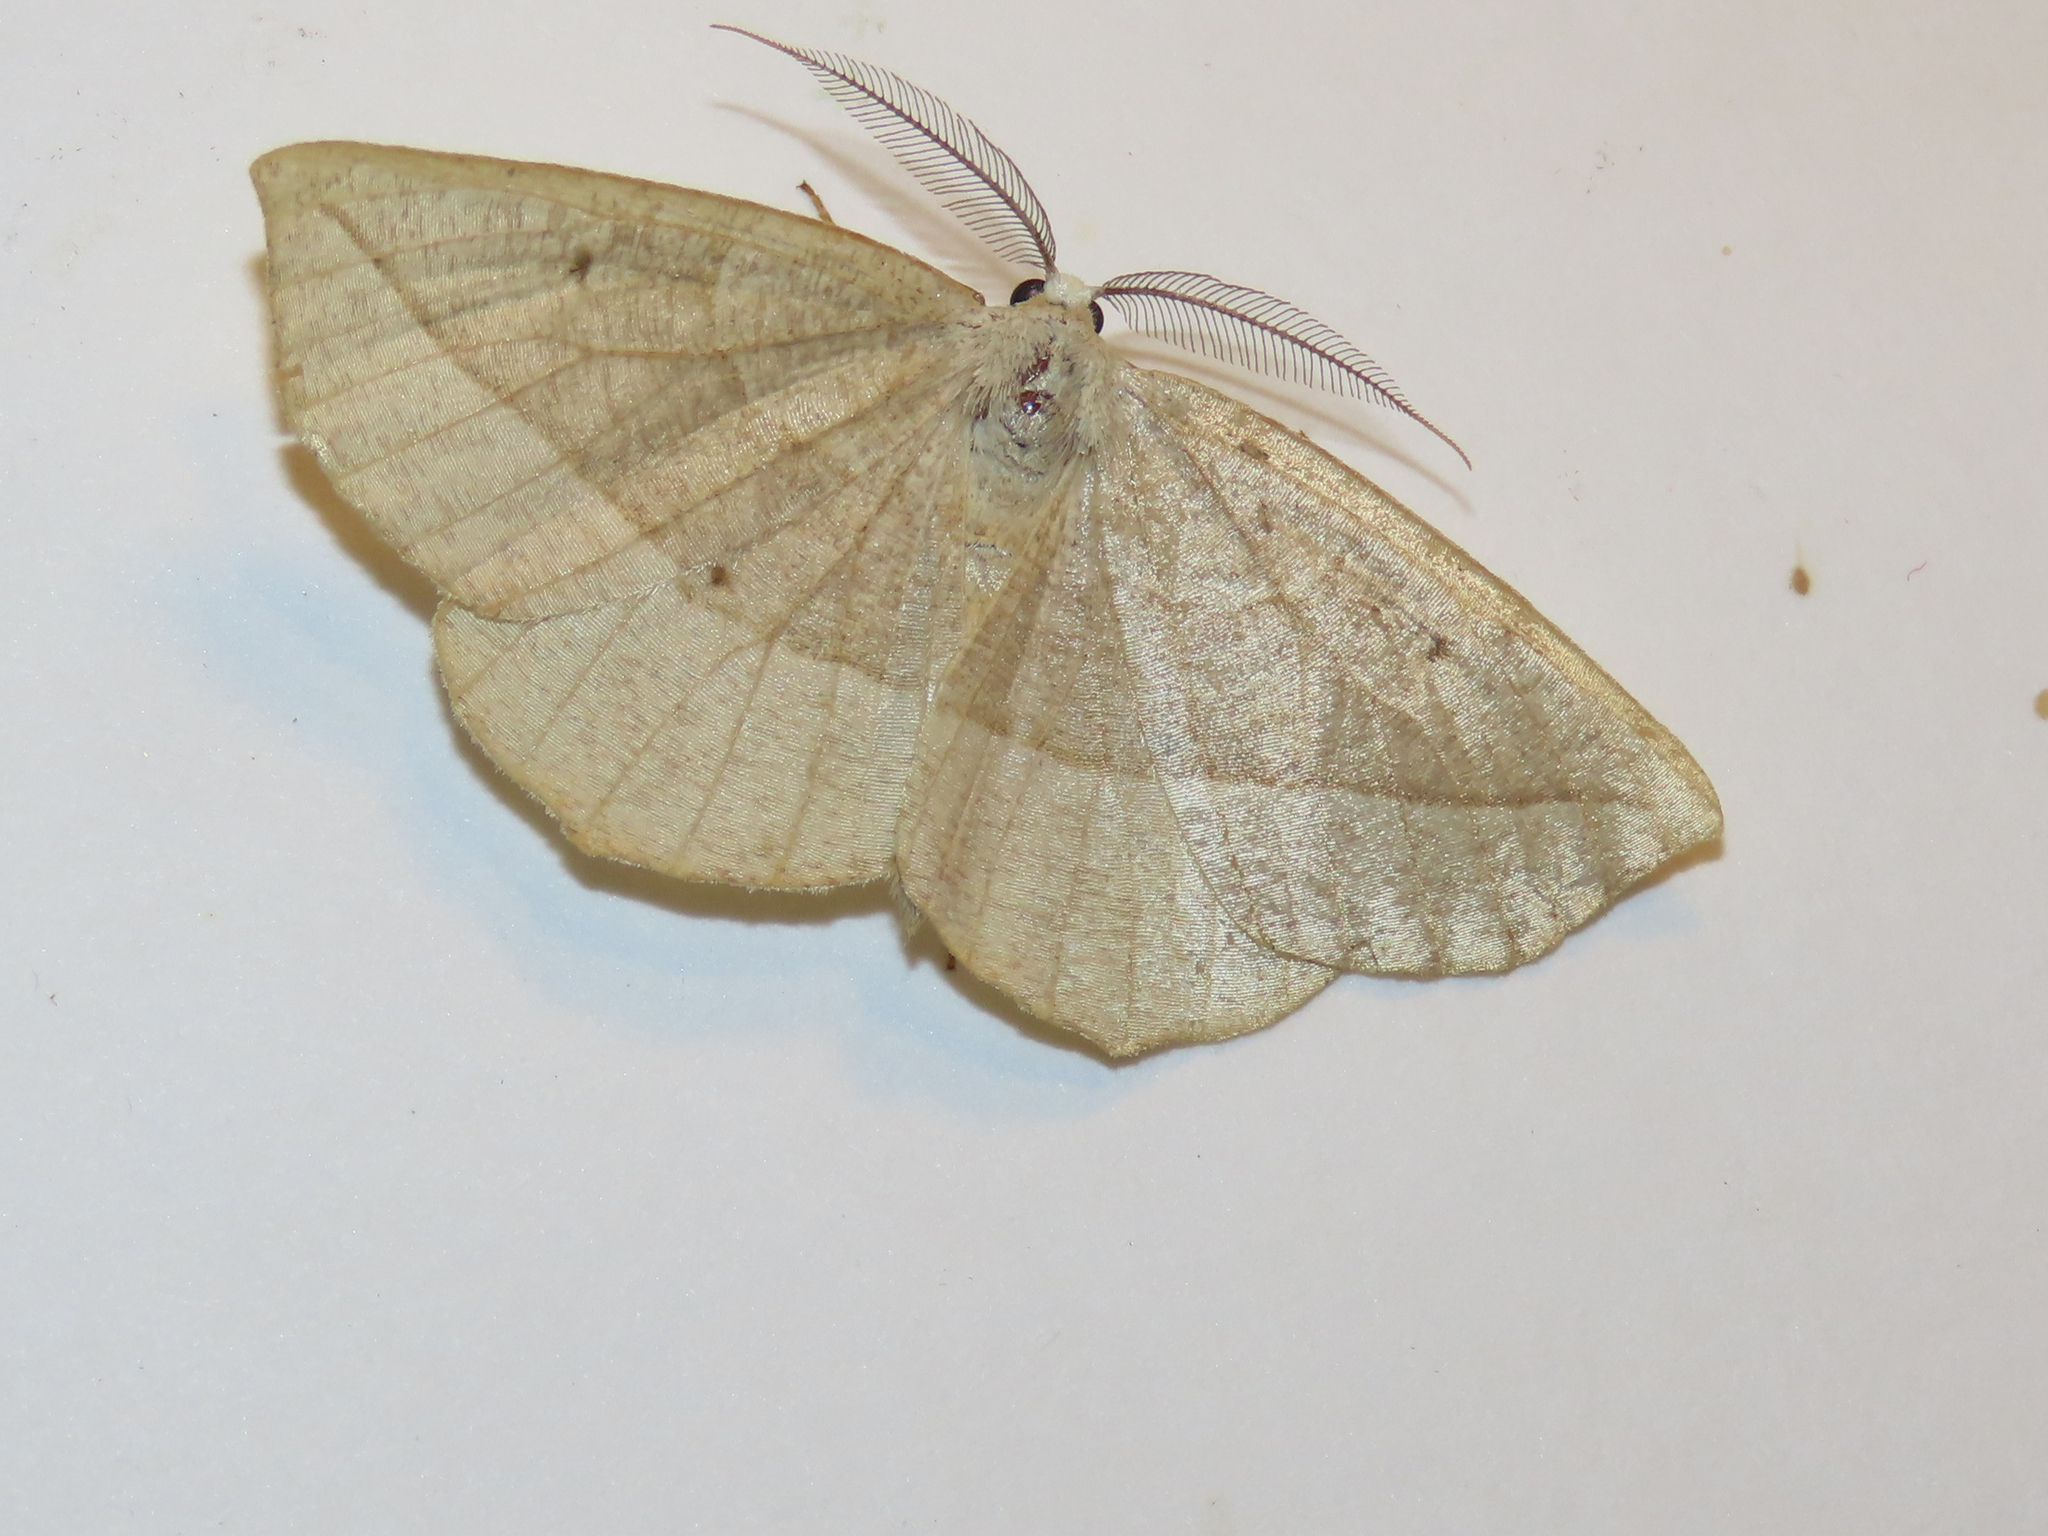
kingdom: Animalia
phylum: Arthropoda
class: Insecta
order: Lepidoptera
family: Geometridae
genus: Eusarca
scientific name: Eusarca confusaria
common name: Confused eusarca
